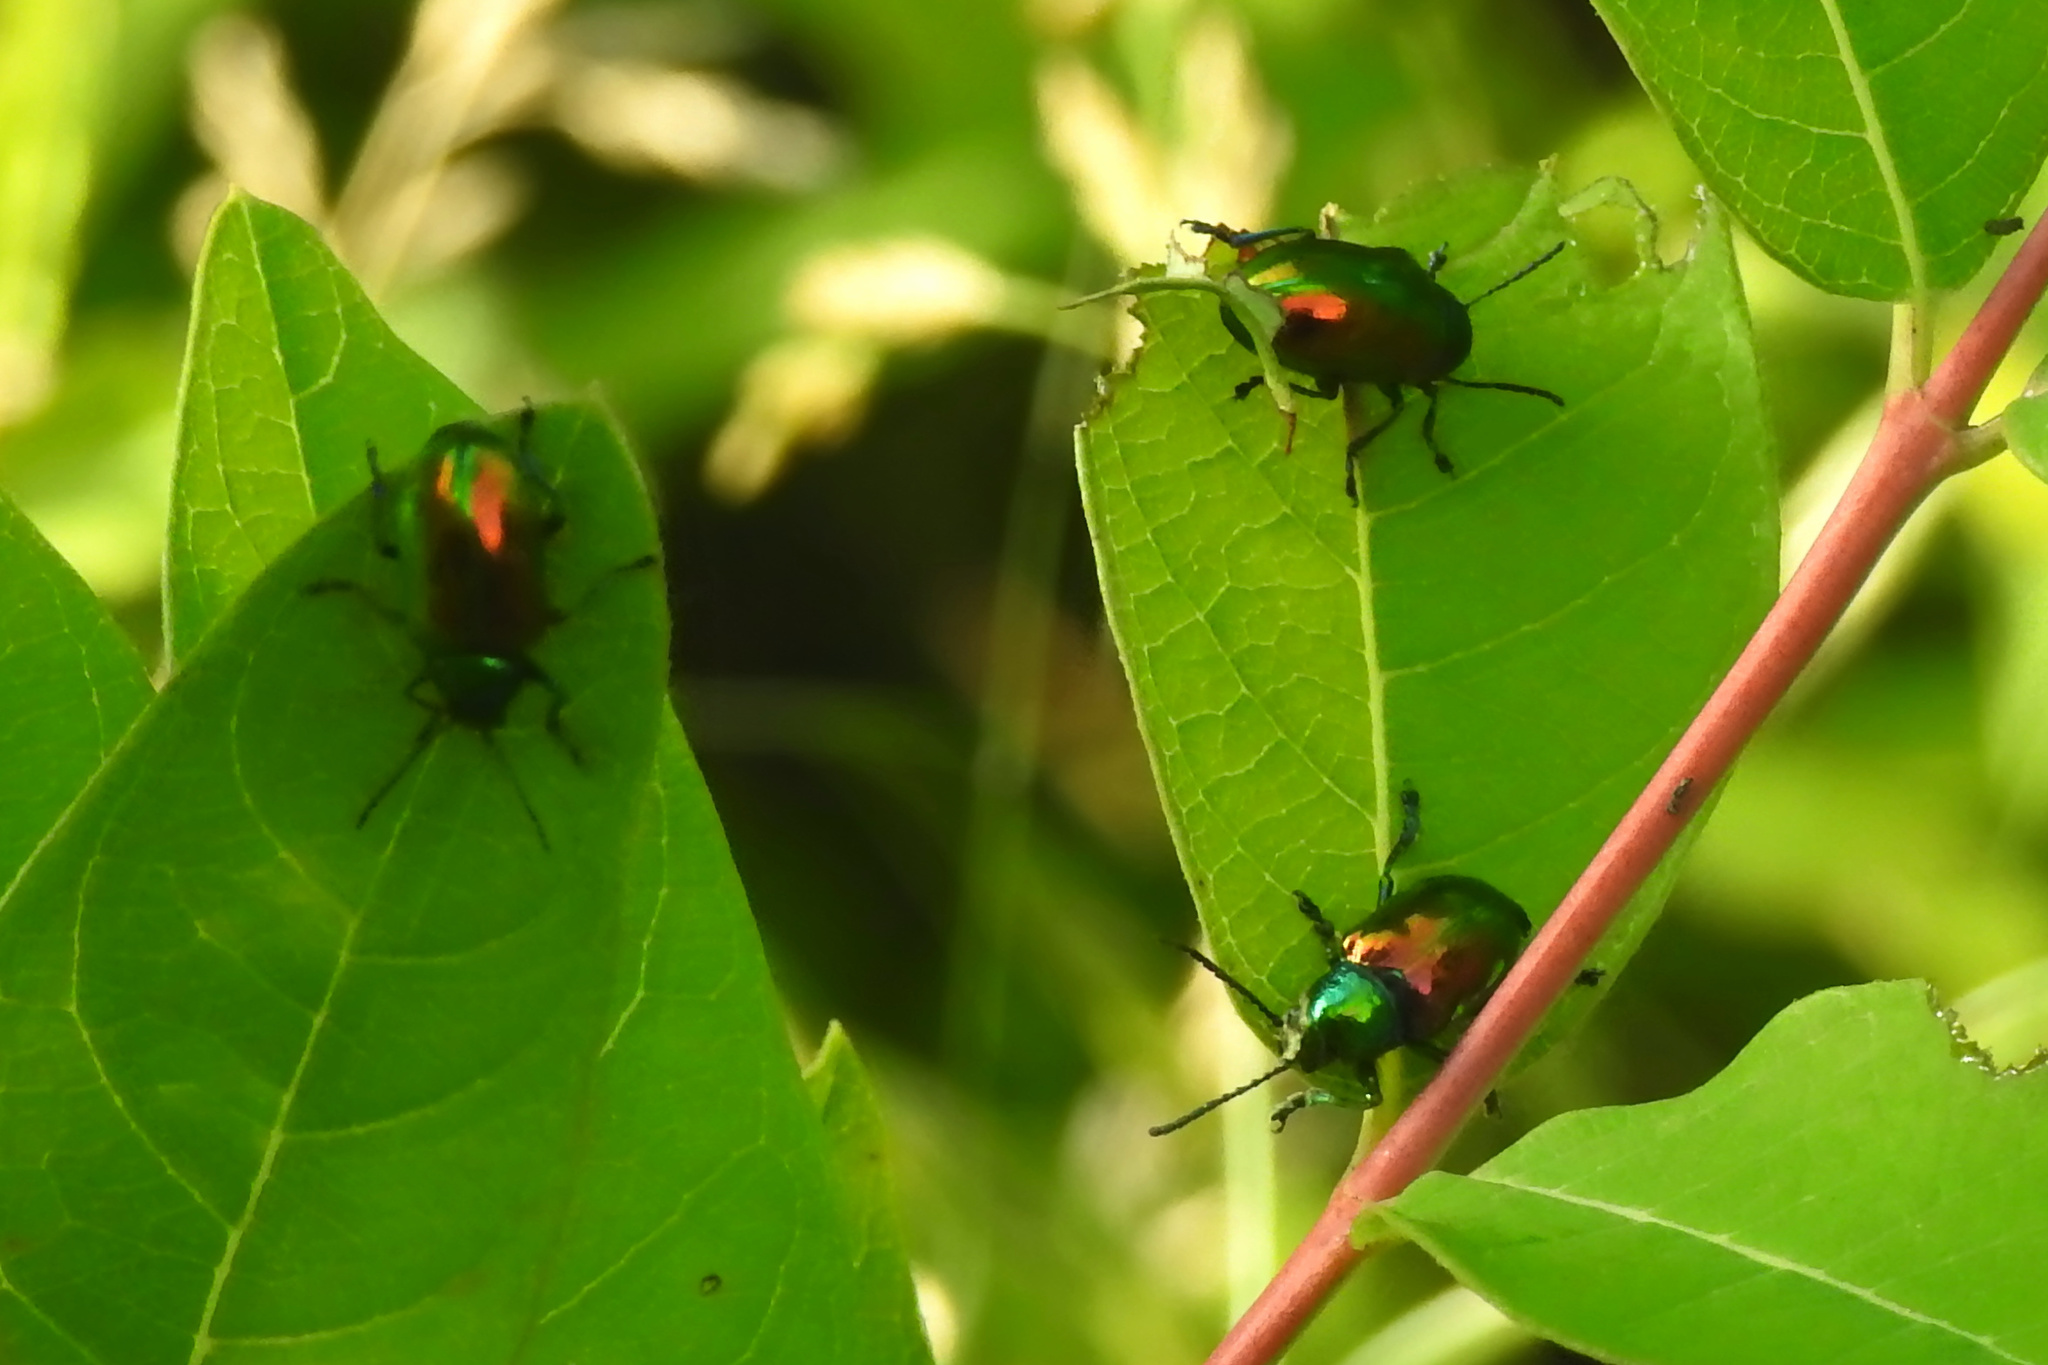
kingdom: Animalia
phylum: Arthropoda
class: Insecta
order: Coleoptera
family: Chrysomelidae
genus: Chrysochus
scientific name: Chrysochus auratus
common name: Dogbane leaf beetle
